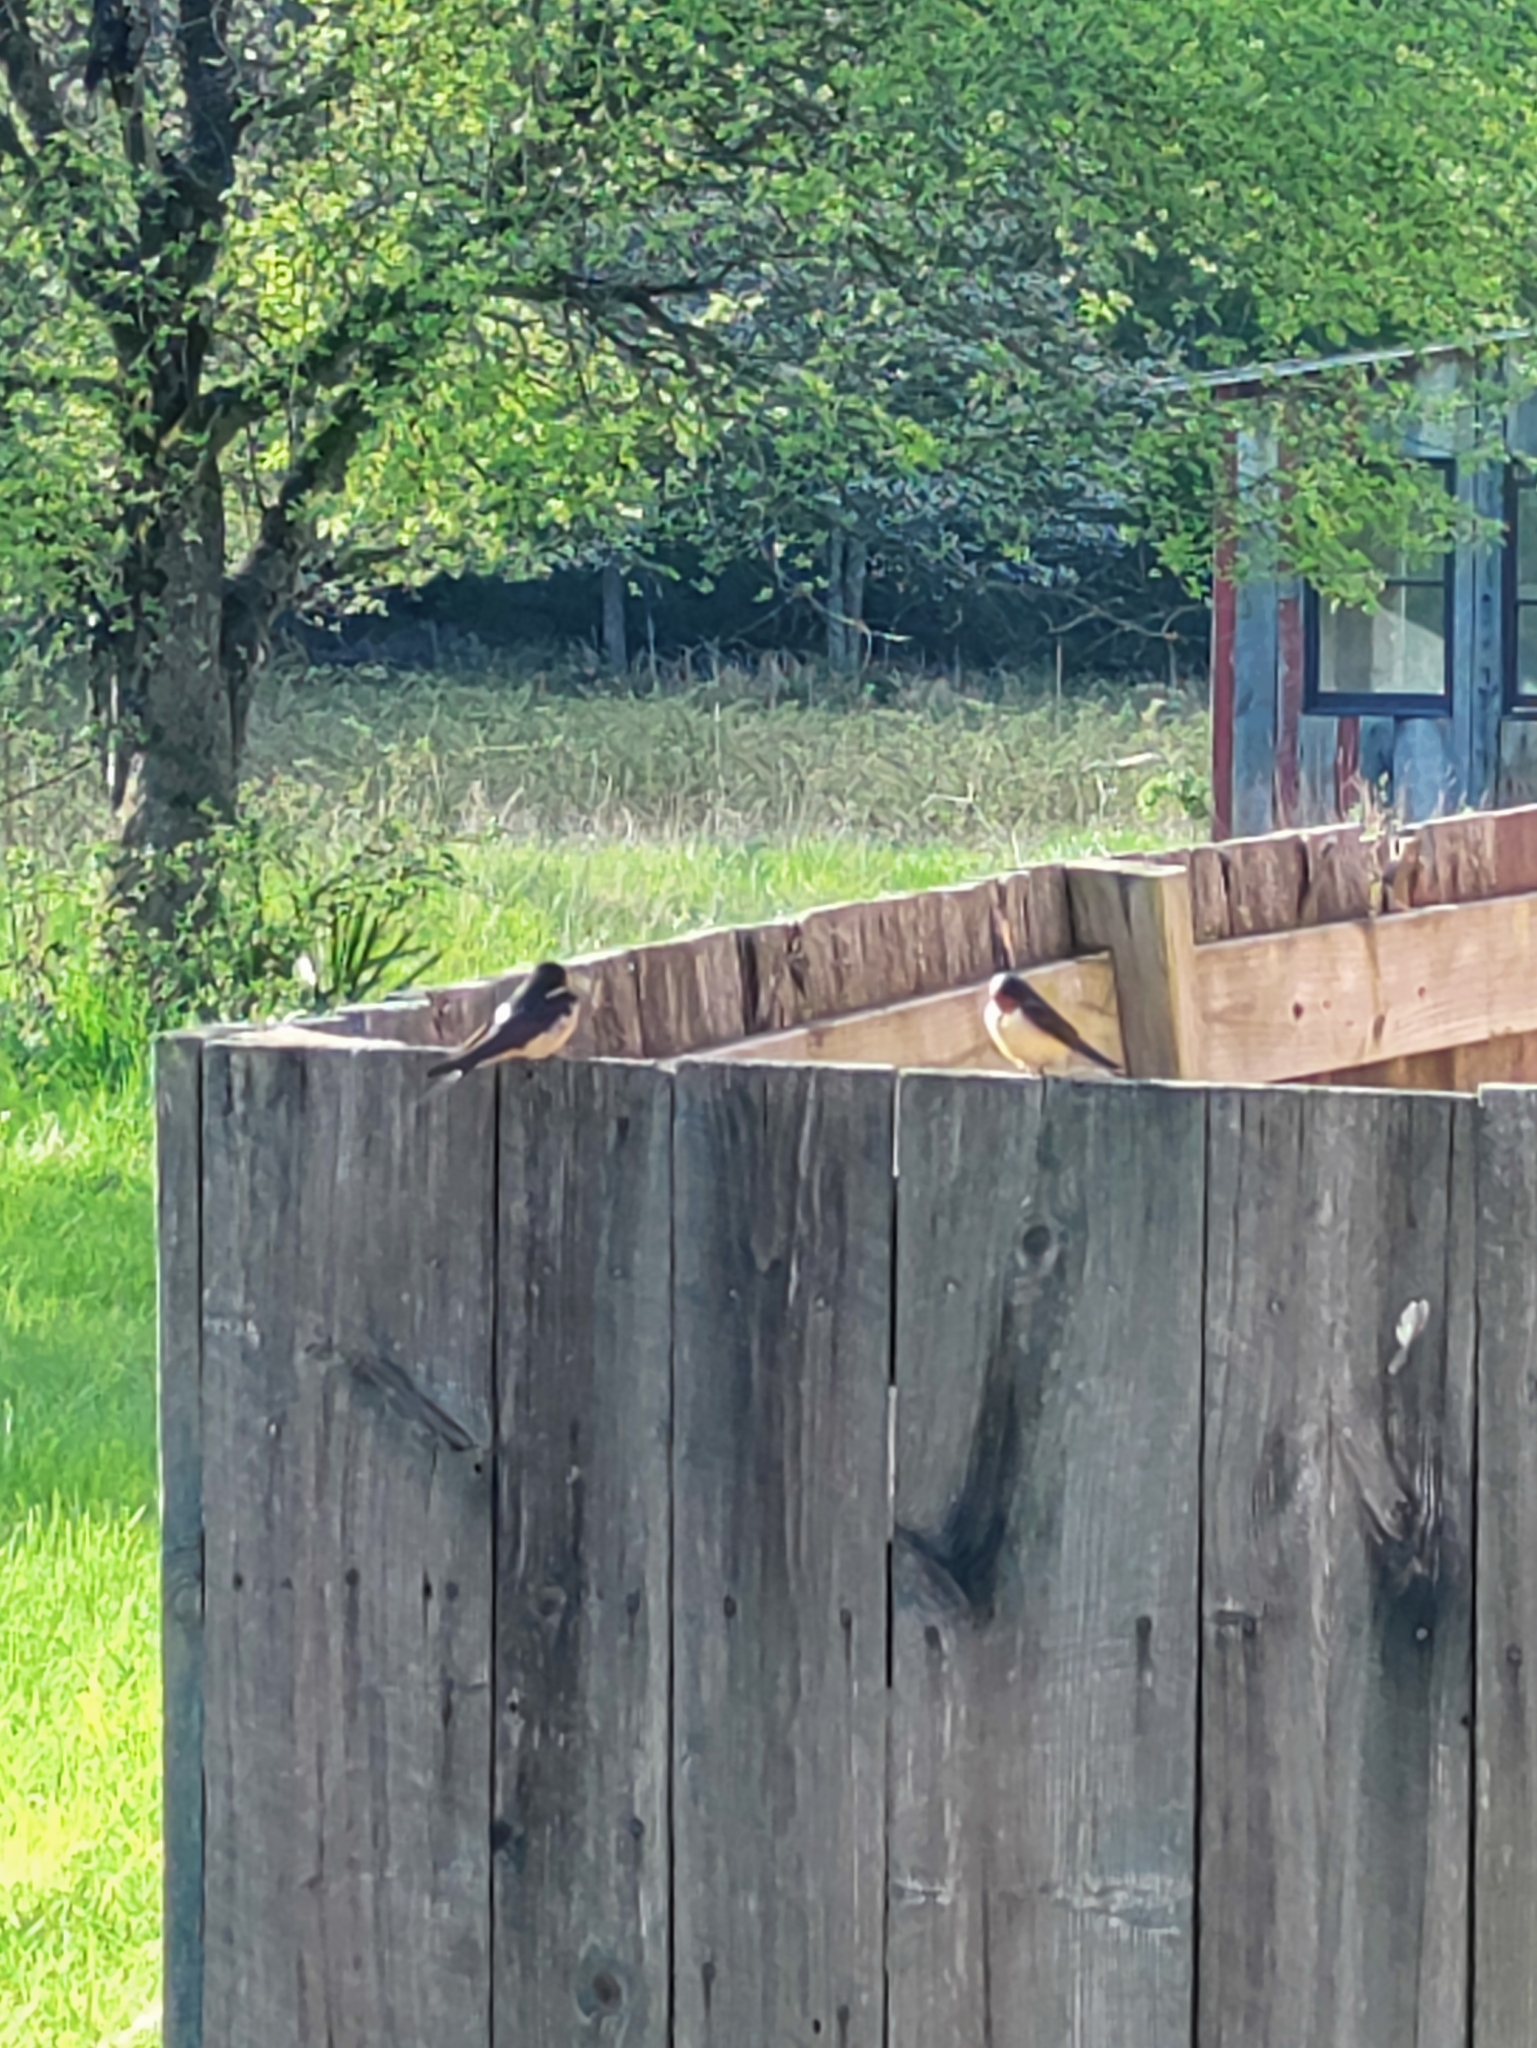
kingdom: Animalia
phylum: Chordata
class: Aves
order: Passeriformes
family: Hirundinidae
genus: Hirundo
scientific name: Hirundo rustica
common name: Barn swallow
